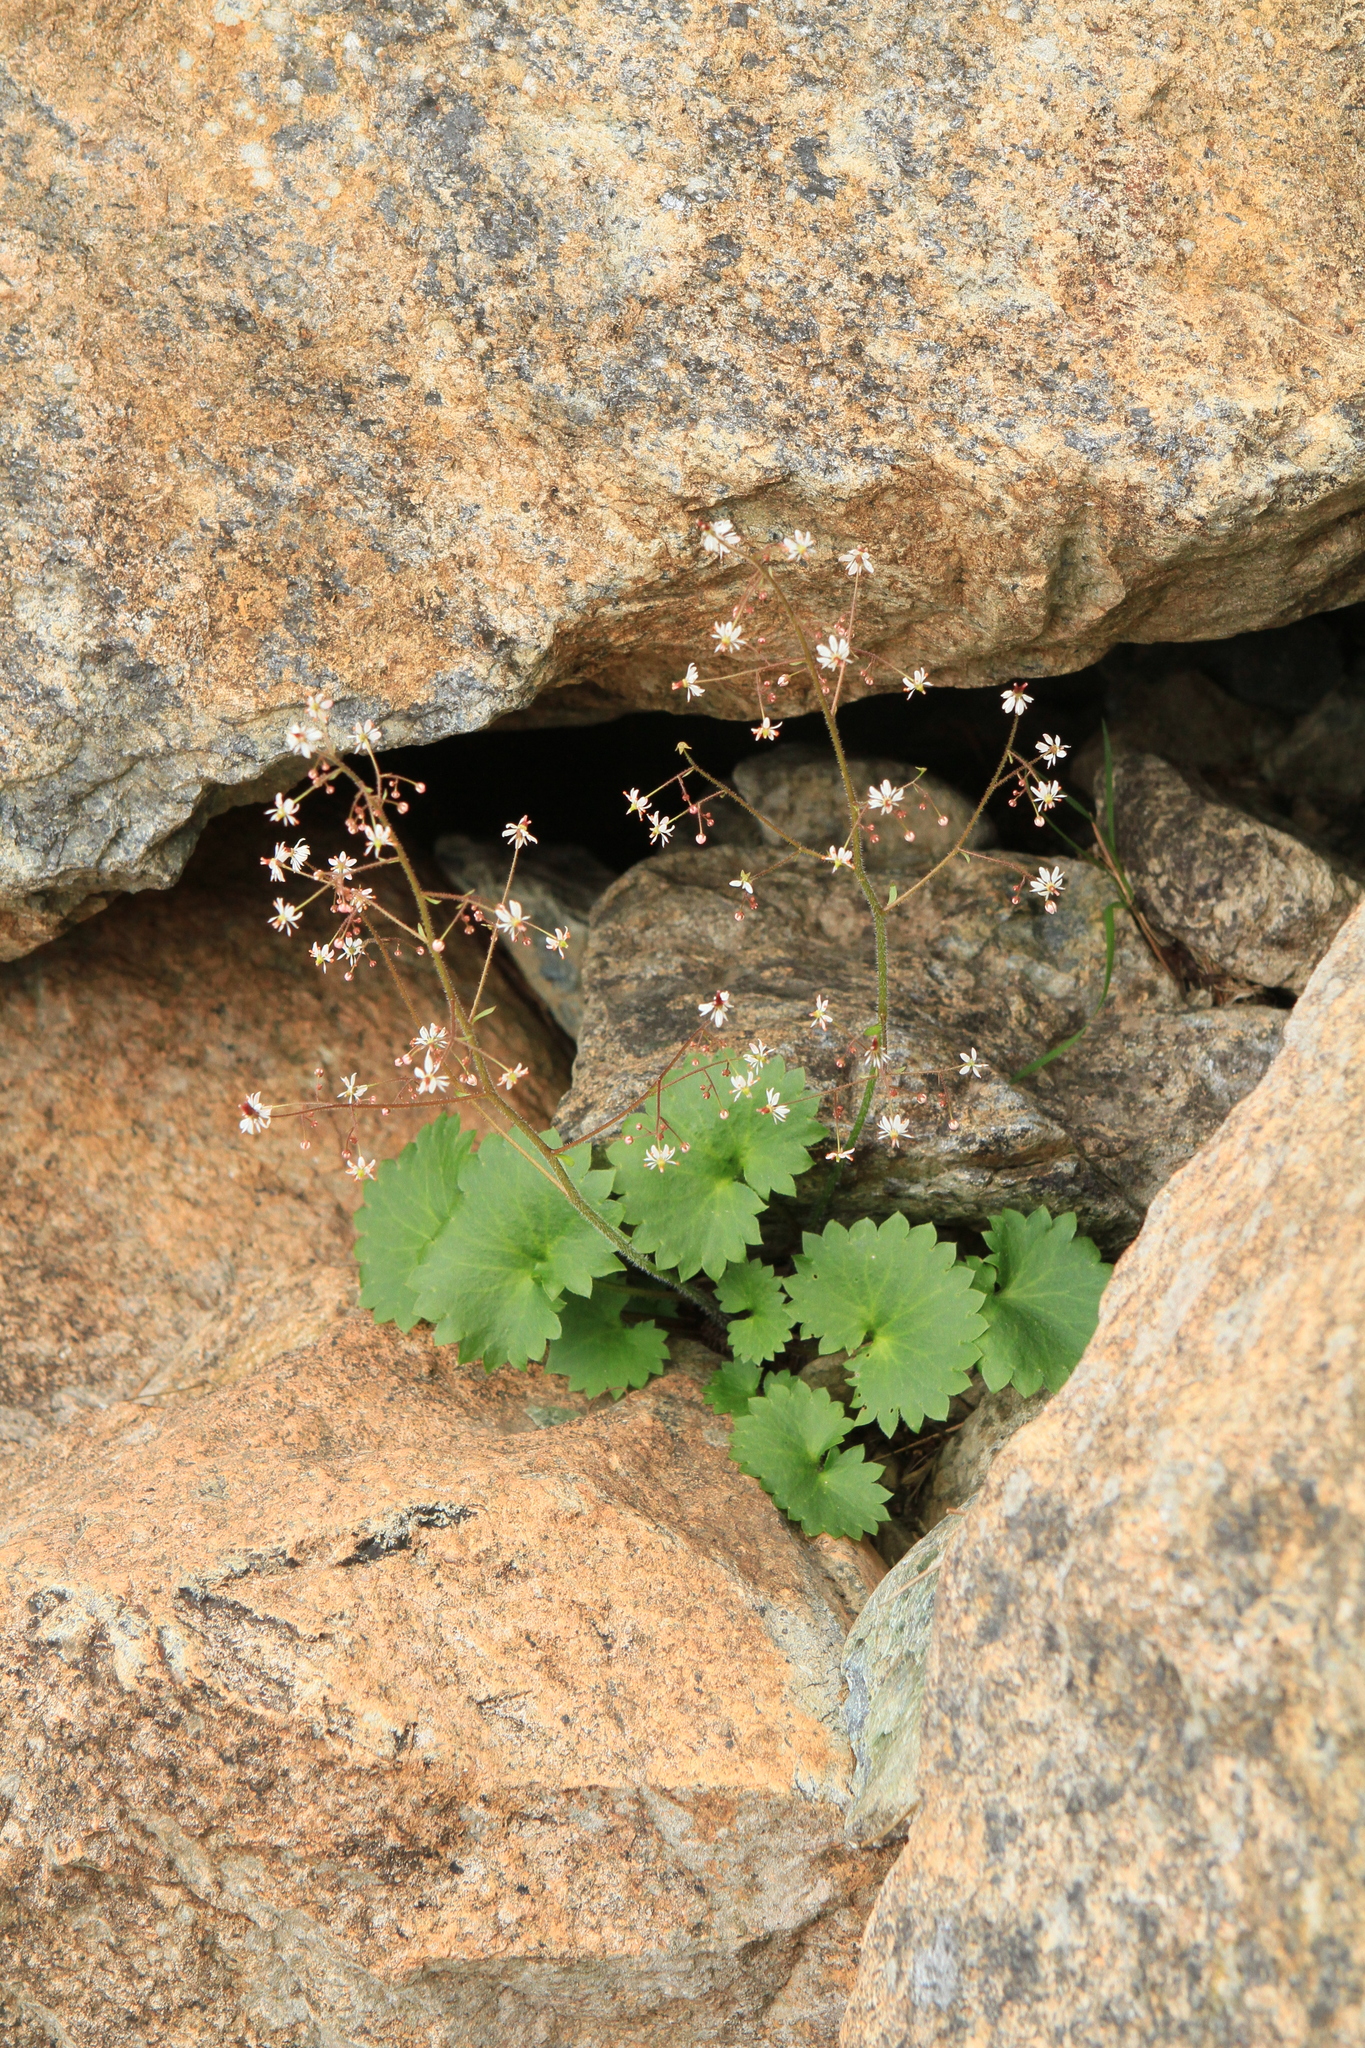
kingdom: Plantae
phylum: Tracheophyta
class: Magnoliopsida
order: Saxifragales
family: Saxifragaceae
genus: Micranthes
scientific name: Micranthes nelsoniana
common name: Nelson's saxifrage
